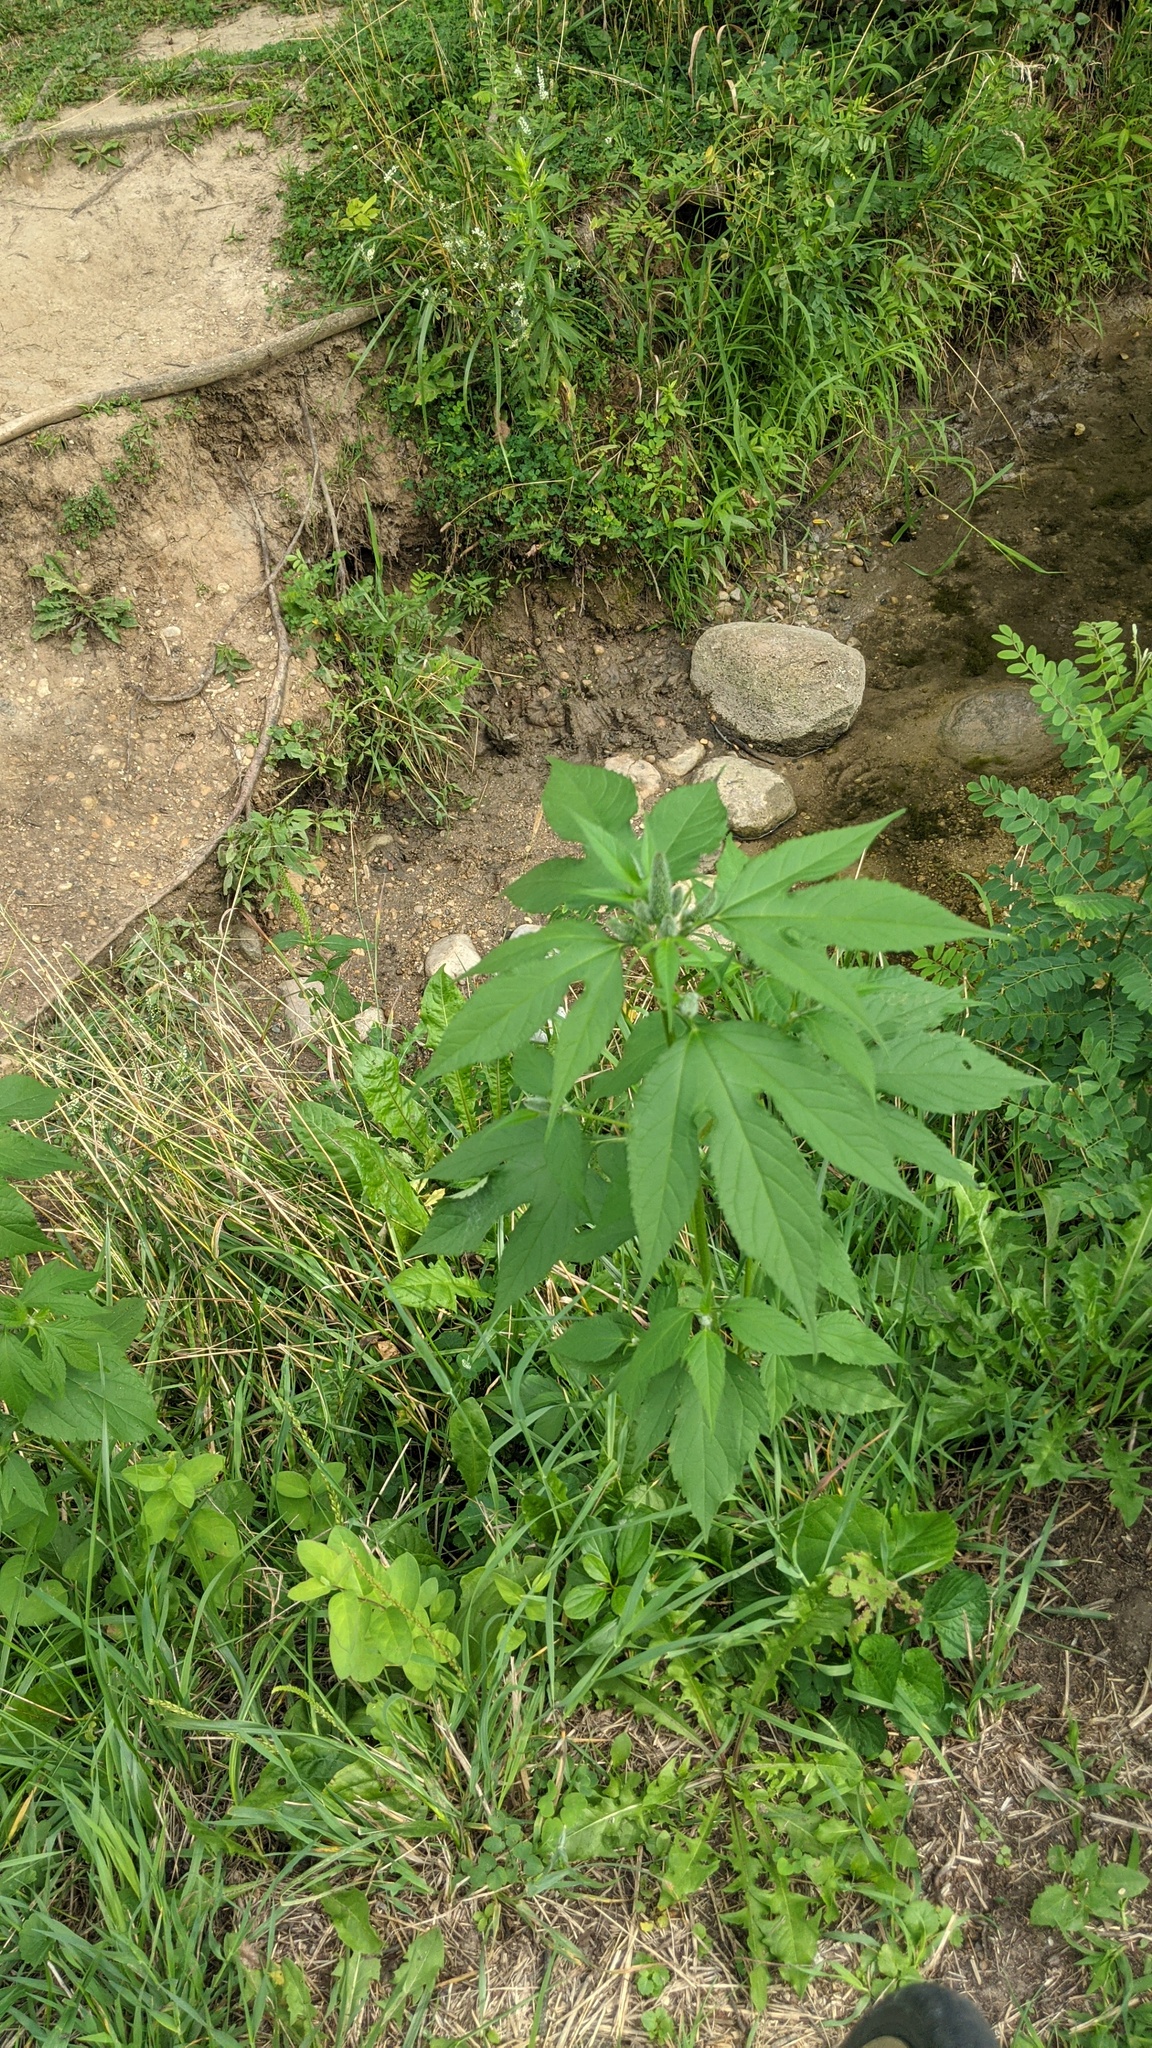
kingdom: Plantae
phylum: Tracheophyta
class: Magnoliopsida
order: Asterales
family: Asteraceae
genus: Ambrosia
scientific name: Ambrosia trifida
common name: Giant ragweed
